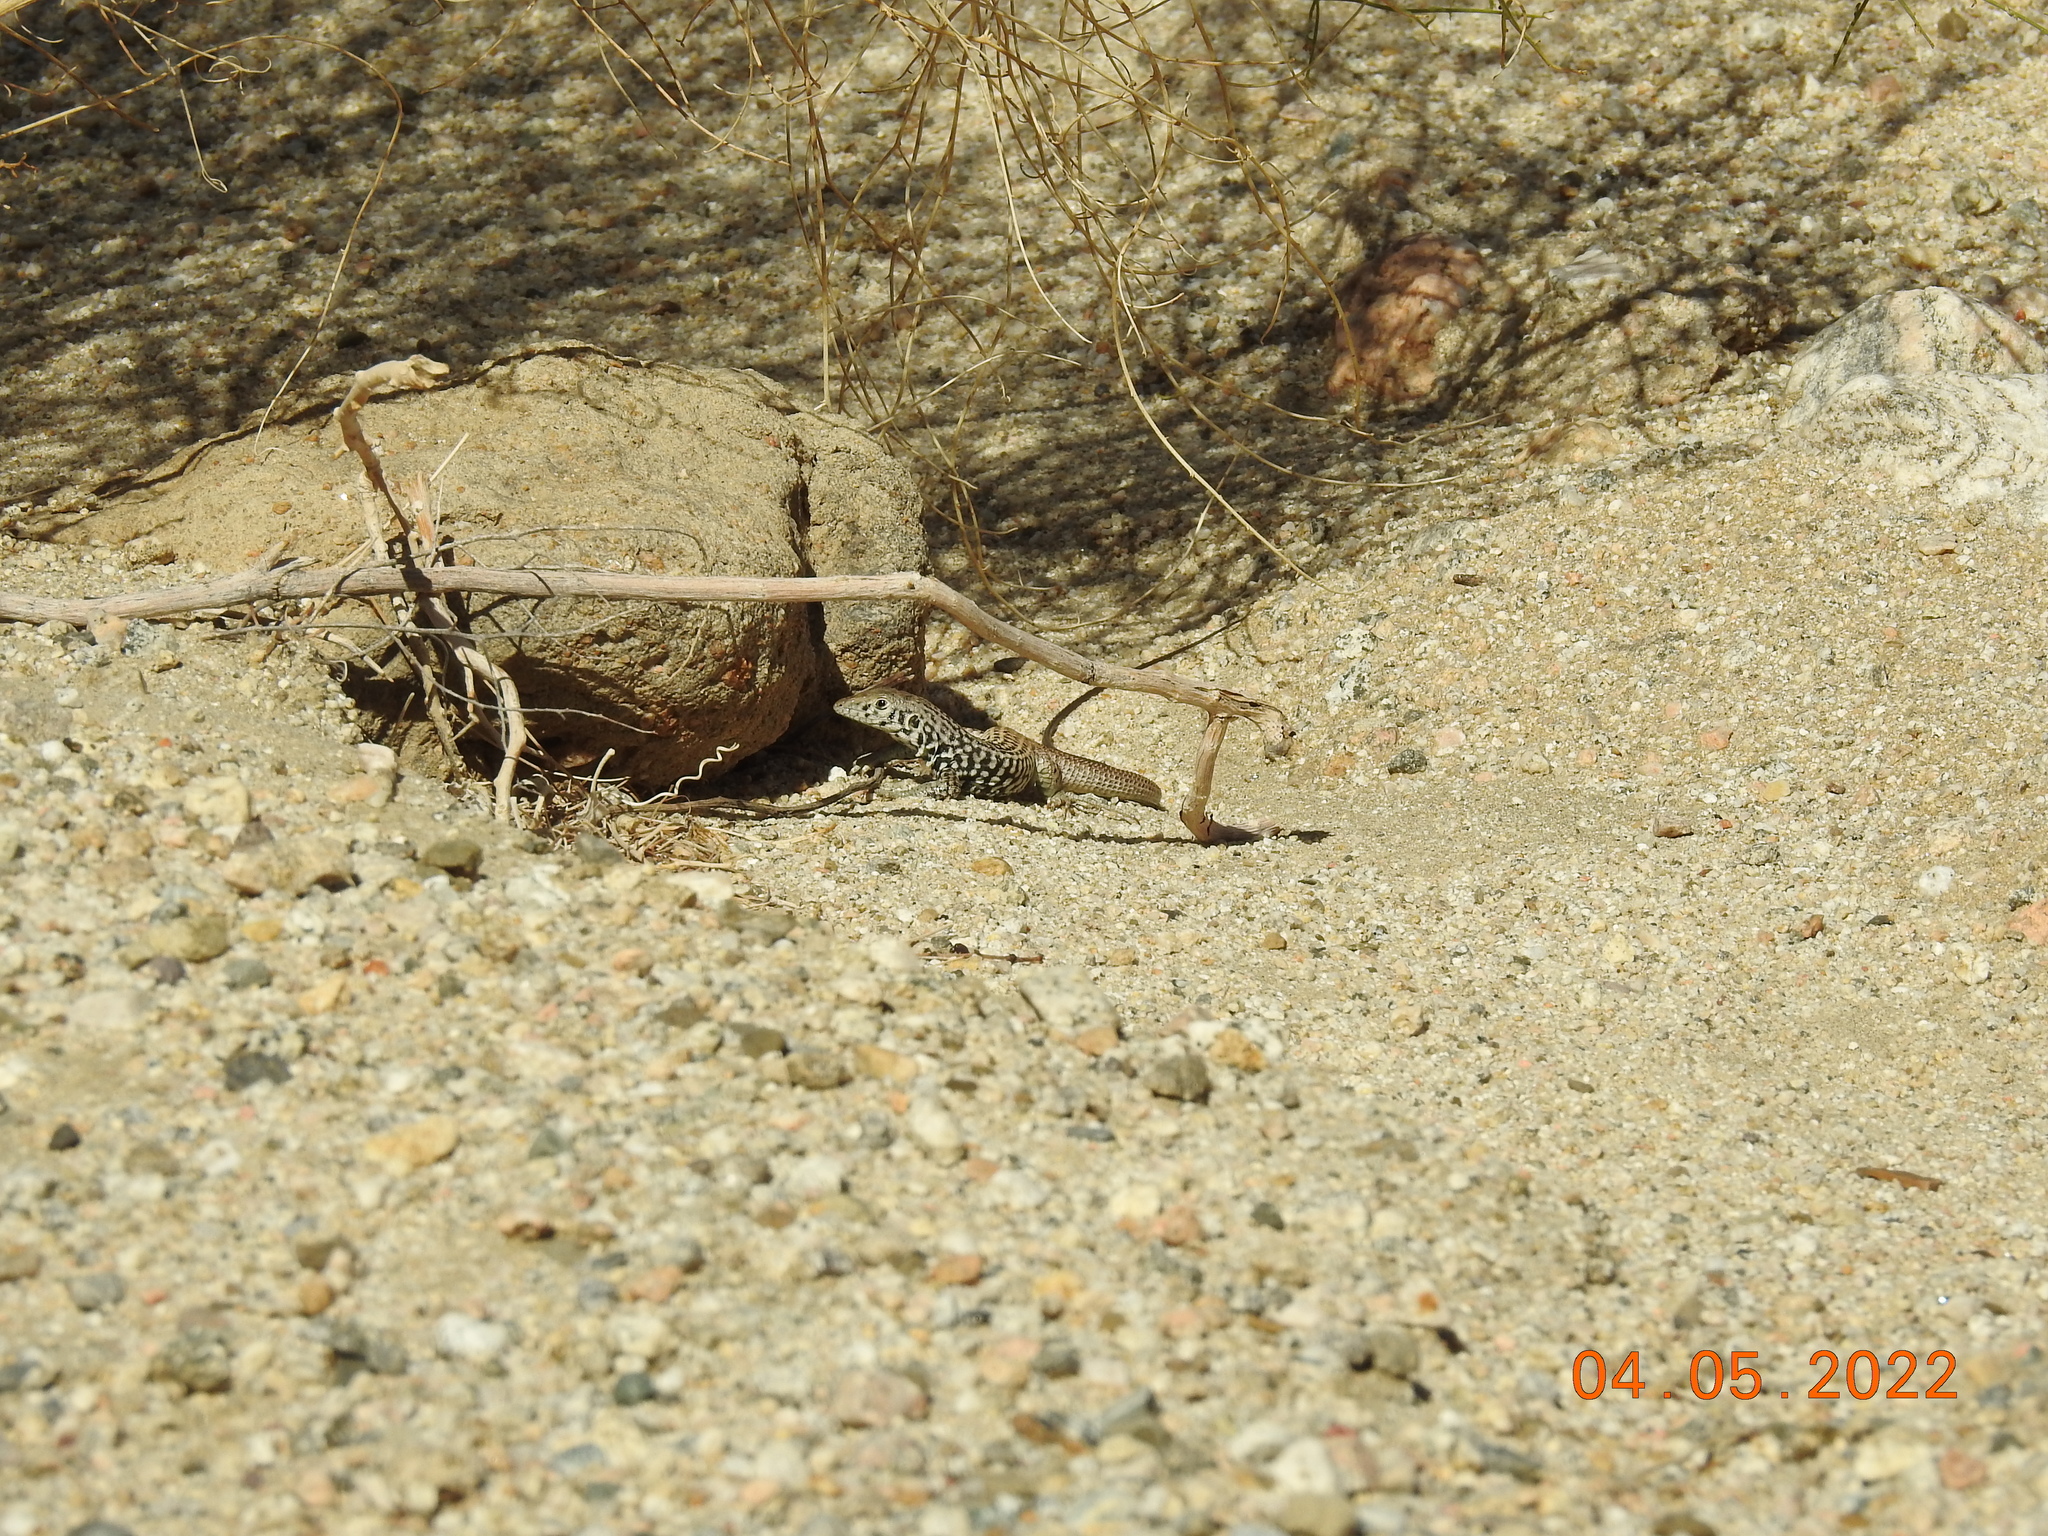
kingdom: Animalia
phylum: Chordata
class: Squamata
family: Teiidae
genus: Aspidoscelis
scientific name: Aspidoscelis tigris
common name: Tiger whiptail
